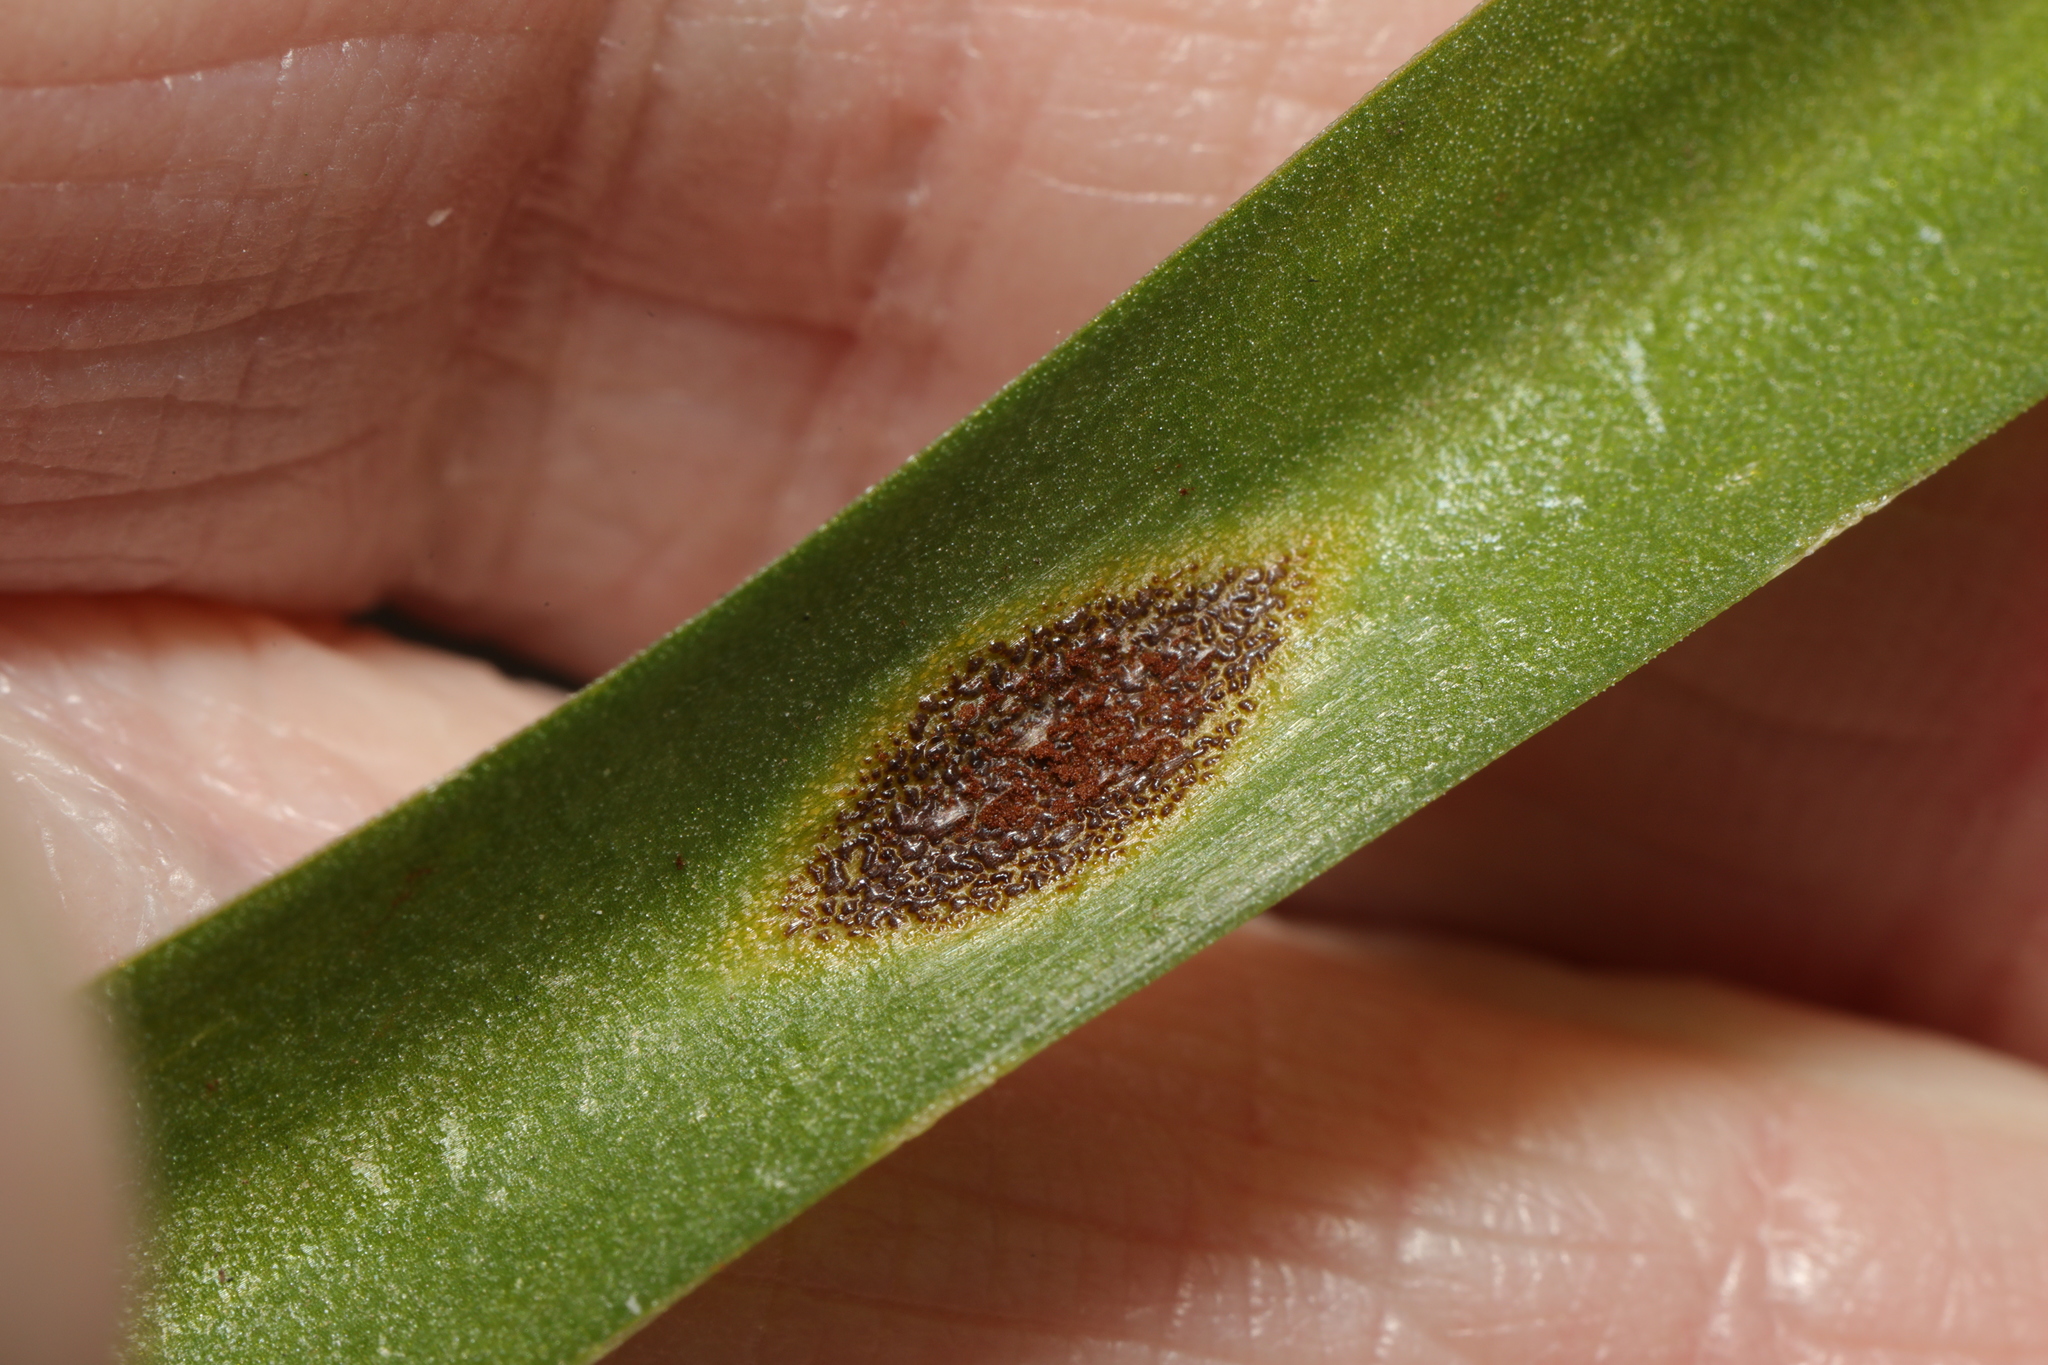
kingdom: Fungi
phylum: Basidiomycota
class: Pucciniomycetes
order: Pucciniales
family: Pucciniaceae
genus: Uromyces
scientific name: Uromyces hyacinthi
